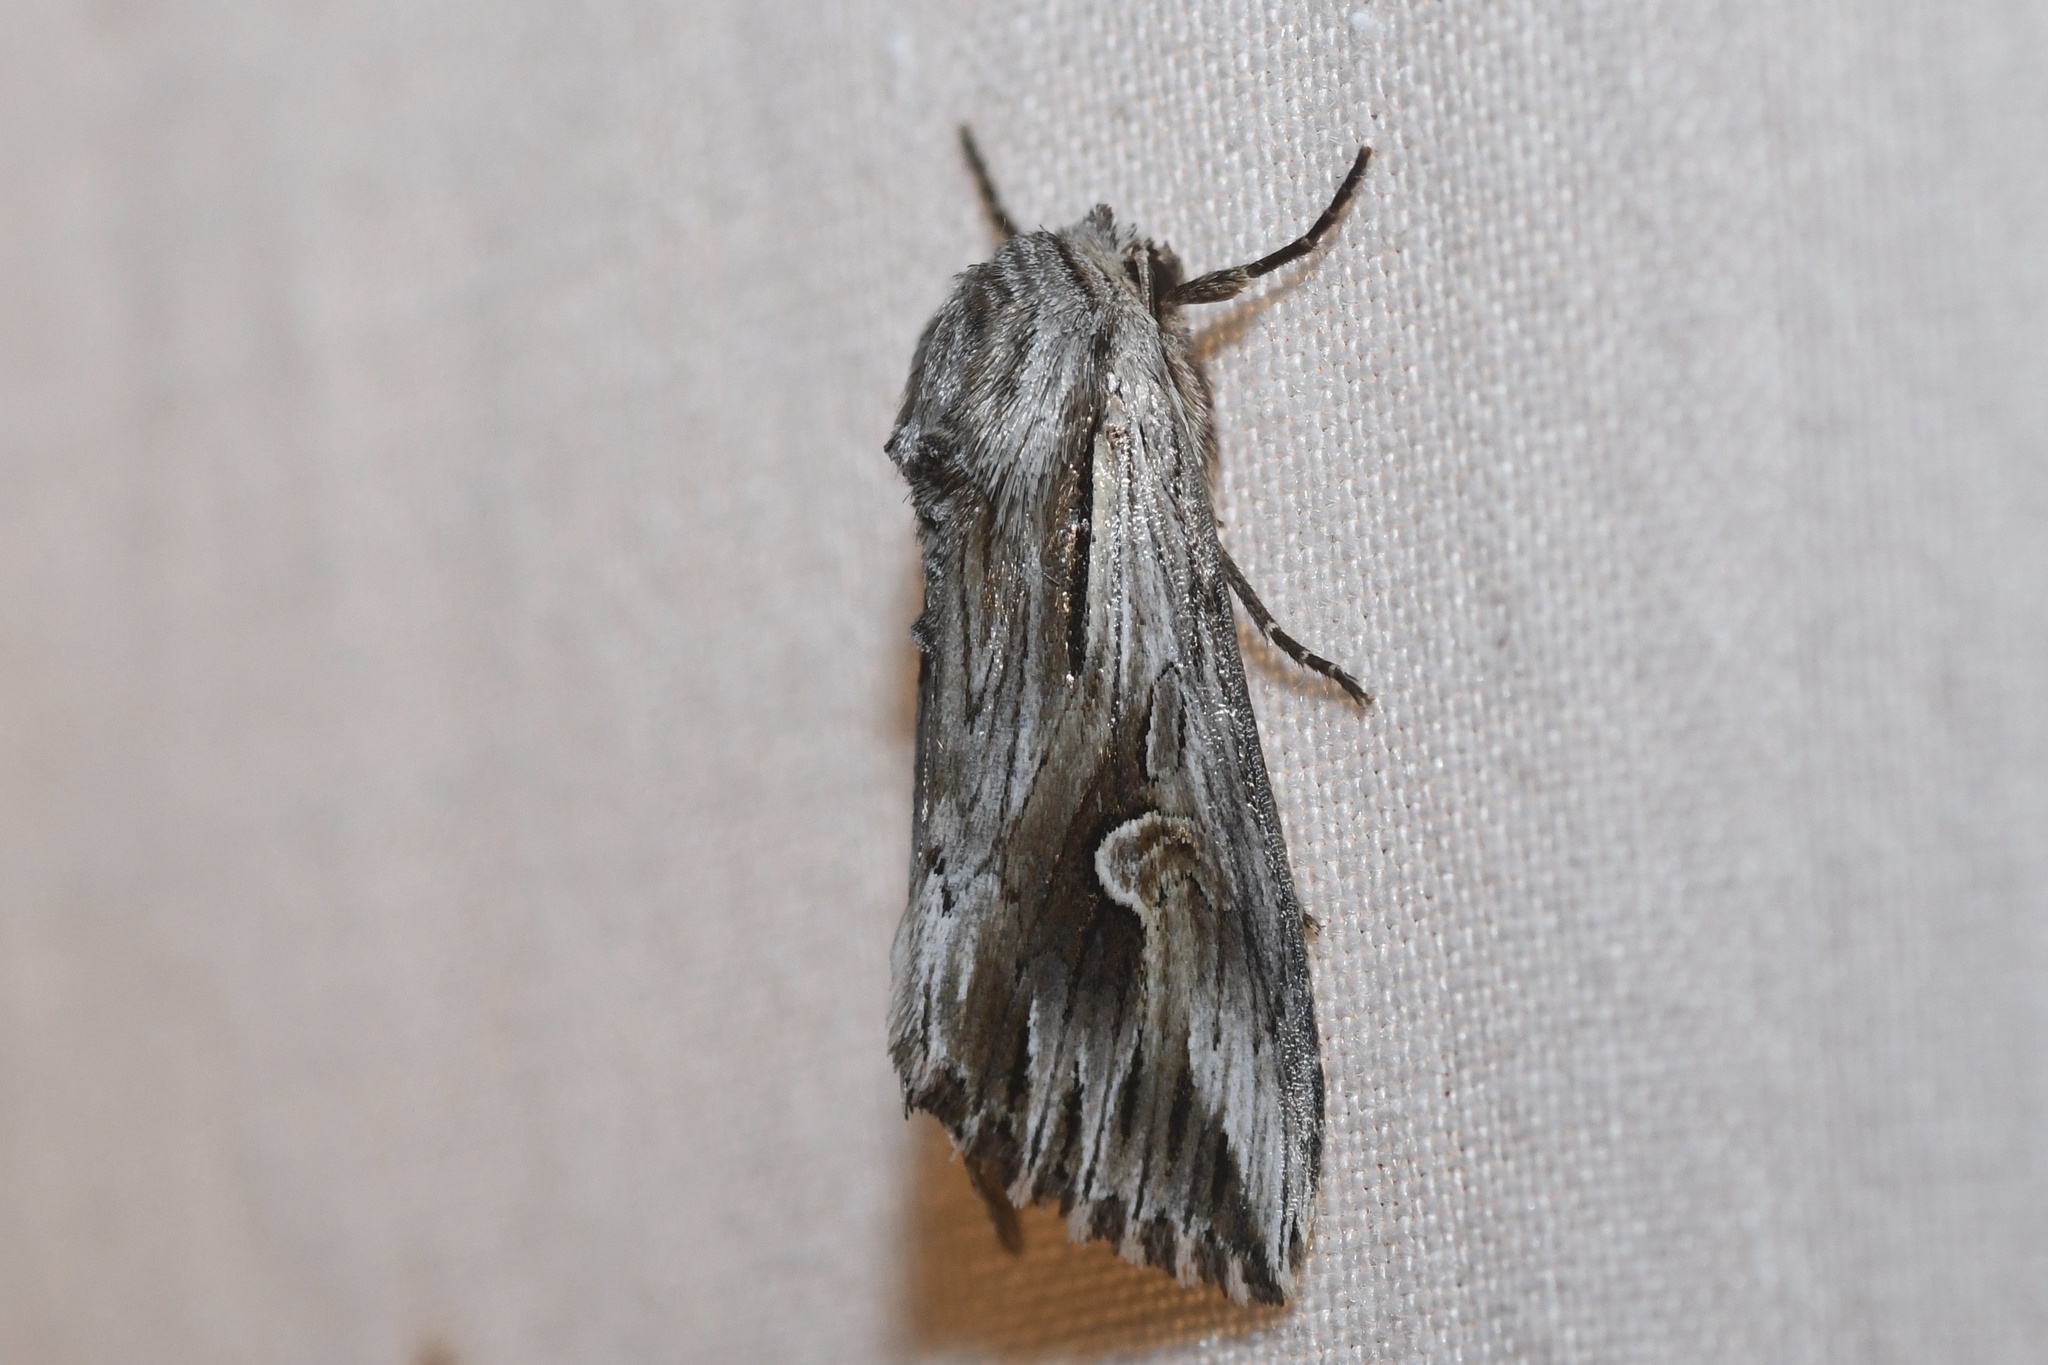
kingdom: Animalia
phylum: Arthropoda
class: Insecta
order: Lepidoptera
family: Noctuidae
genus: Nedra
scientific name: Nedra ramosula
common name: Gray half-spot
